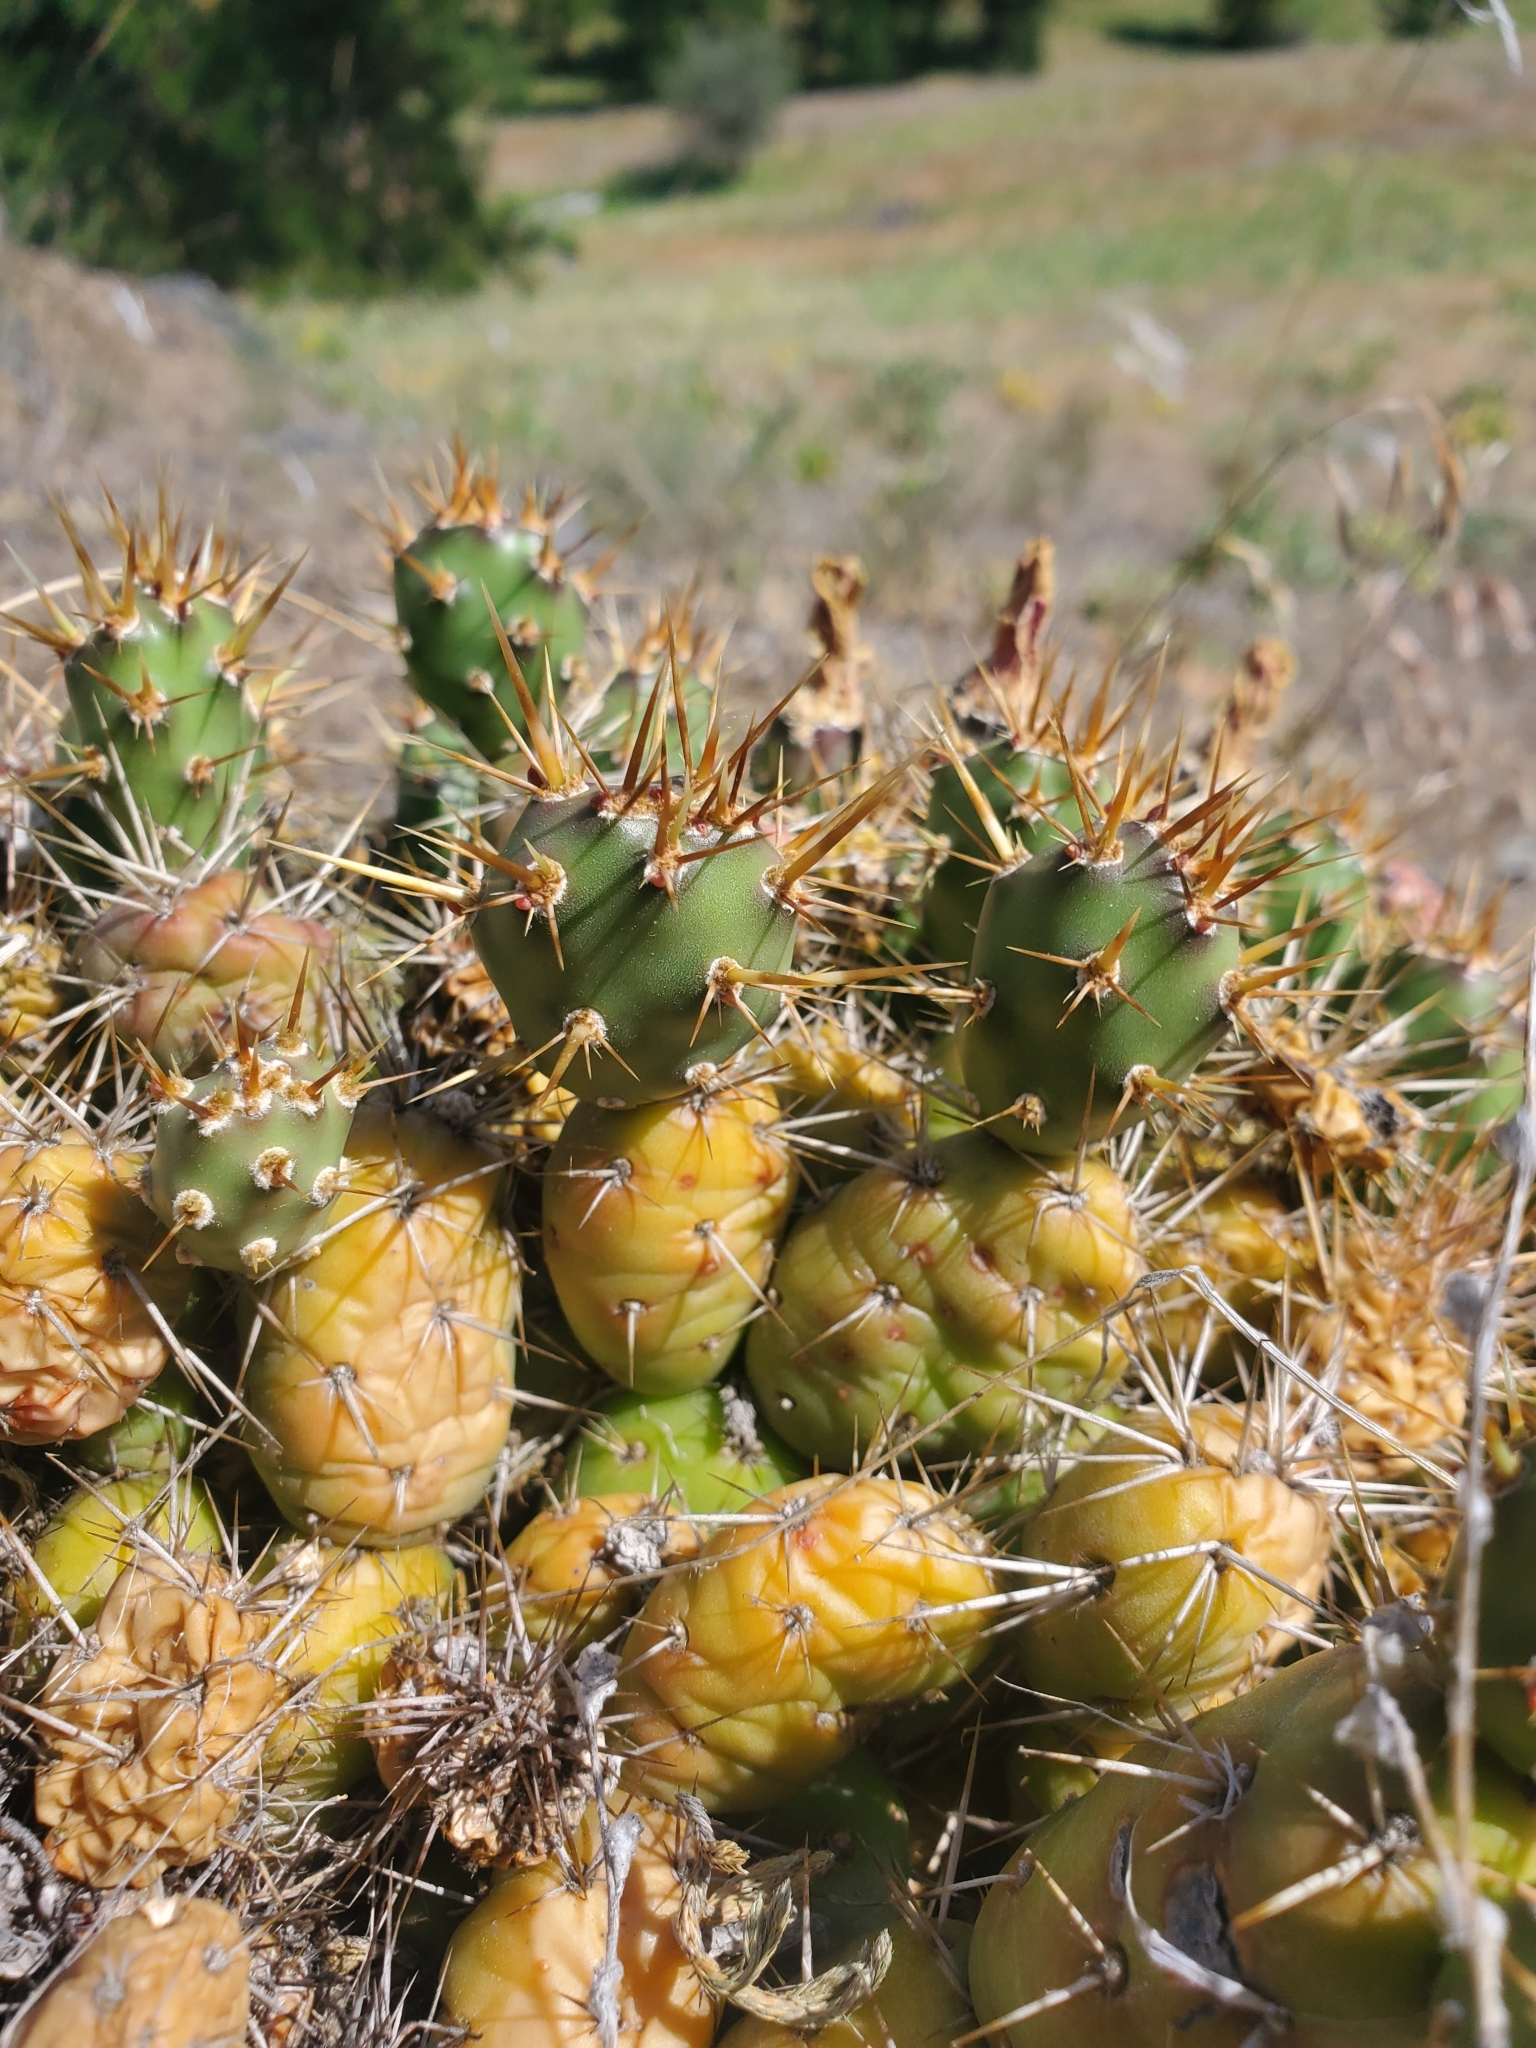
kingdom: Plantae
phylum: Tracheophyta
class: Magnoliopsida
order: Caryophyllales
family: Cactaceae
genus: Opuntia
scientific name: Opuntia fragilis
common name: Brittle cactus
